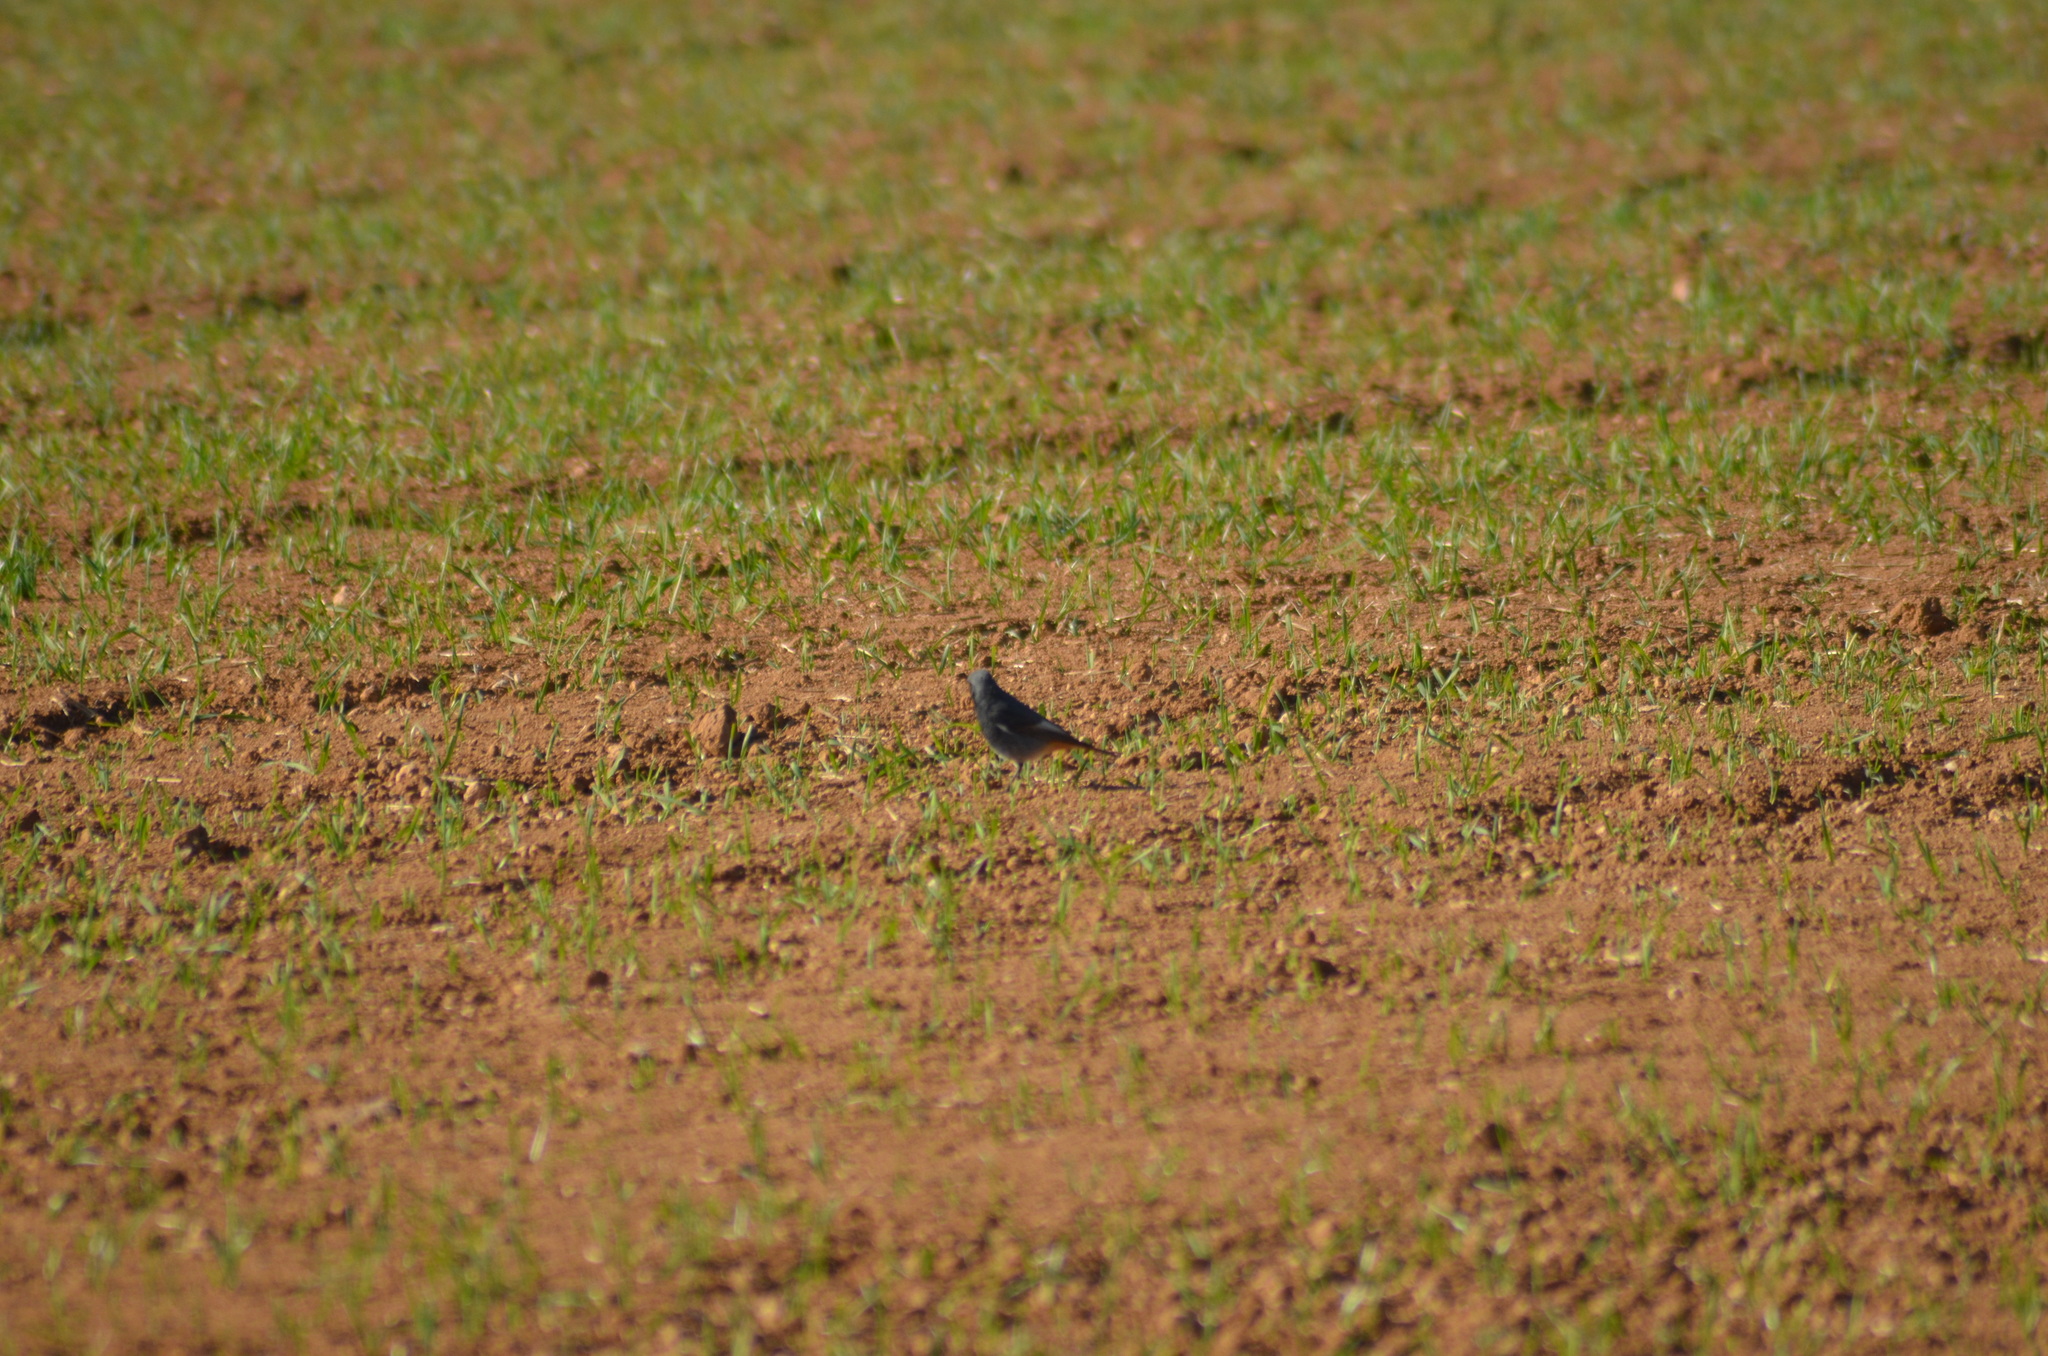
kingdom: Animalia
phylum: Chordata
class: Aves
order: Passeriformes
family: Muscicapidae
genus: Phoenicurus
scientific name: Phoenicurus ochruros
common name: Black redstart
